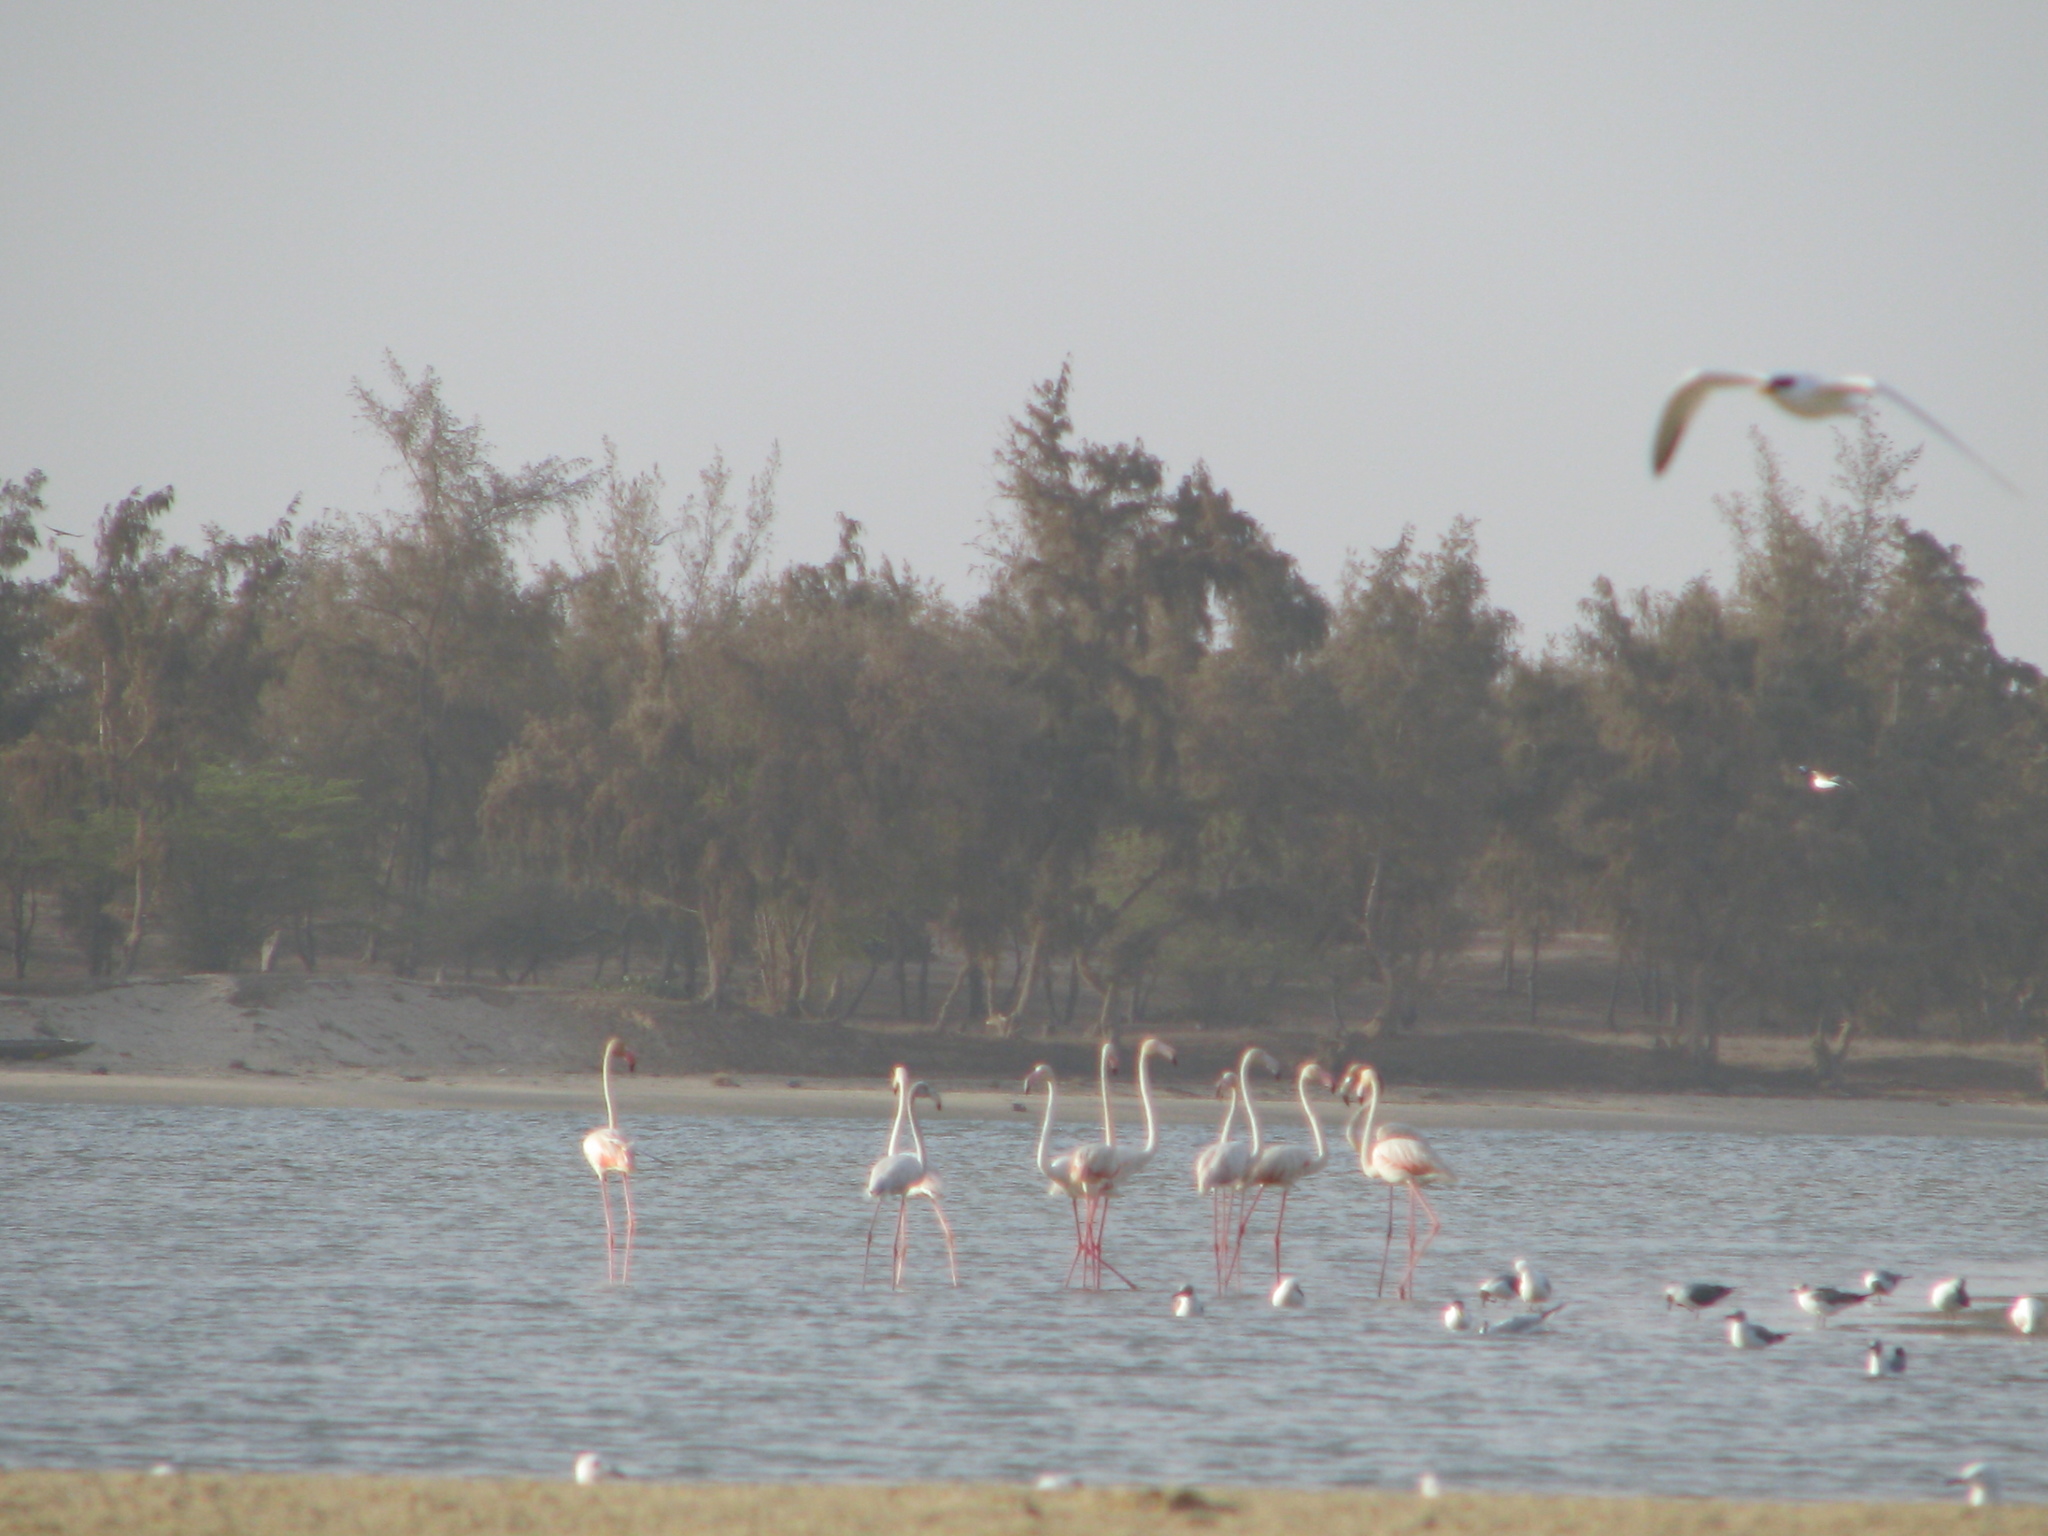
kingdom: Animalia
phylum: Chordata
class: Aves
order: Phoenicopteriformes
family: Phoenicopteridae
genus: Phoenicopterus
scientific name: Phoenicopterus roseus
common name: Greater flamingo
